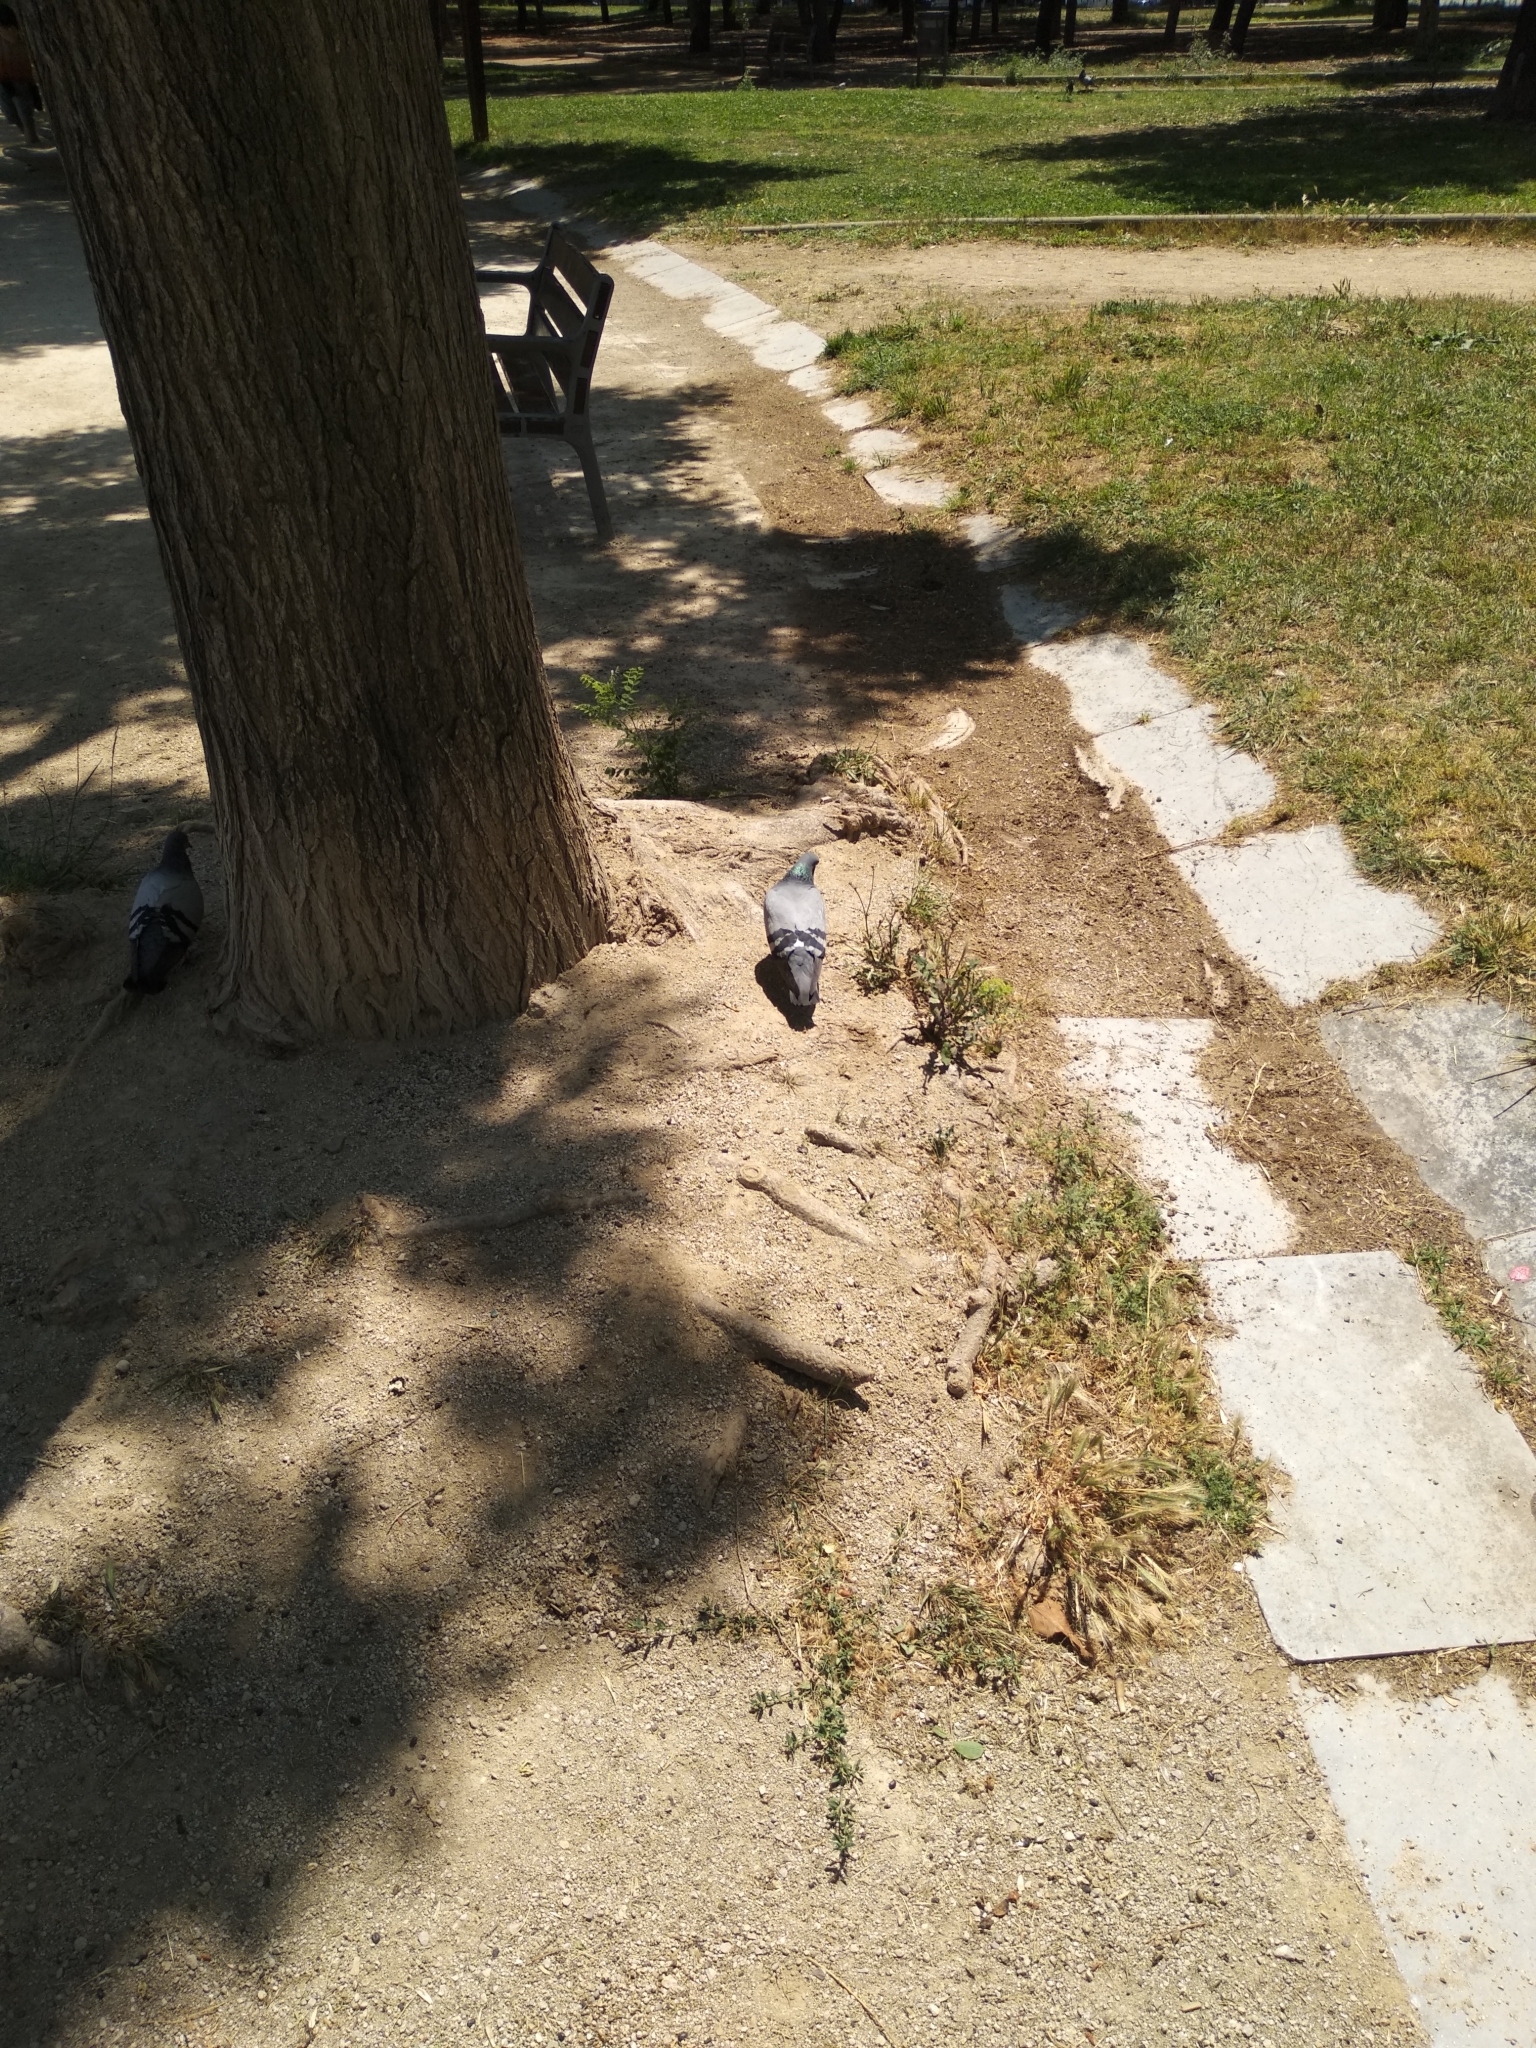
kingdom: Animalia
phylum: Chordata
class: Aves
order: Columbiformes
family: Columbidae
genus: Columba
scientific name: Columba livia
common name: Rock pigeon
